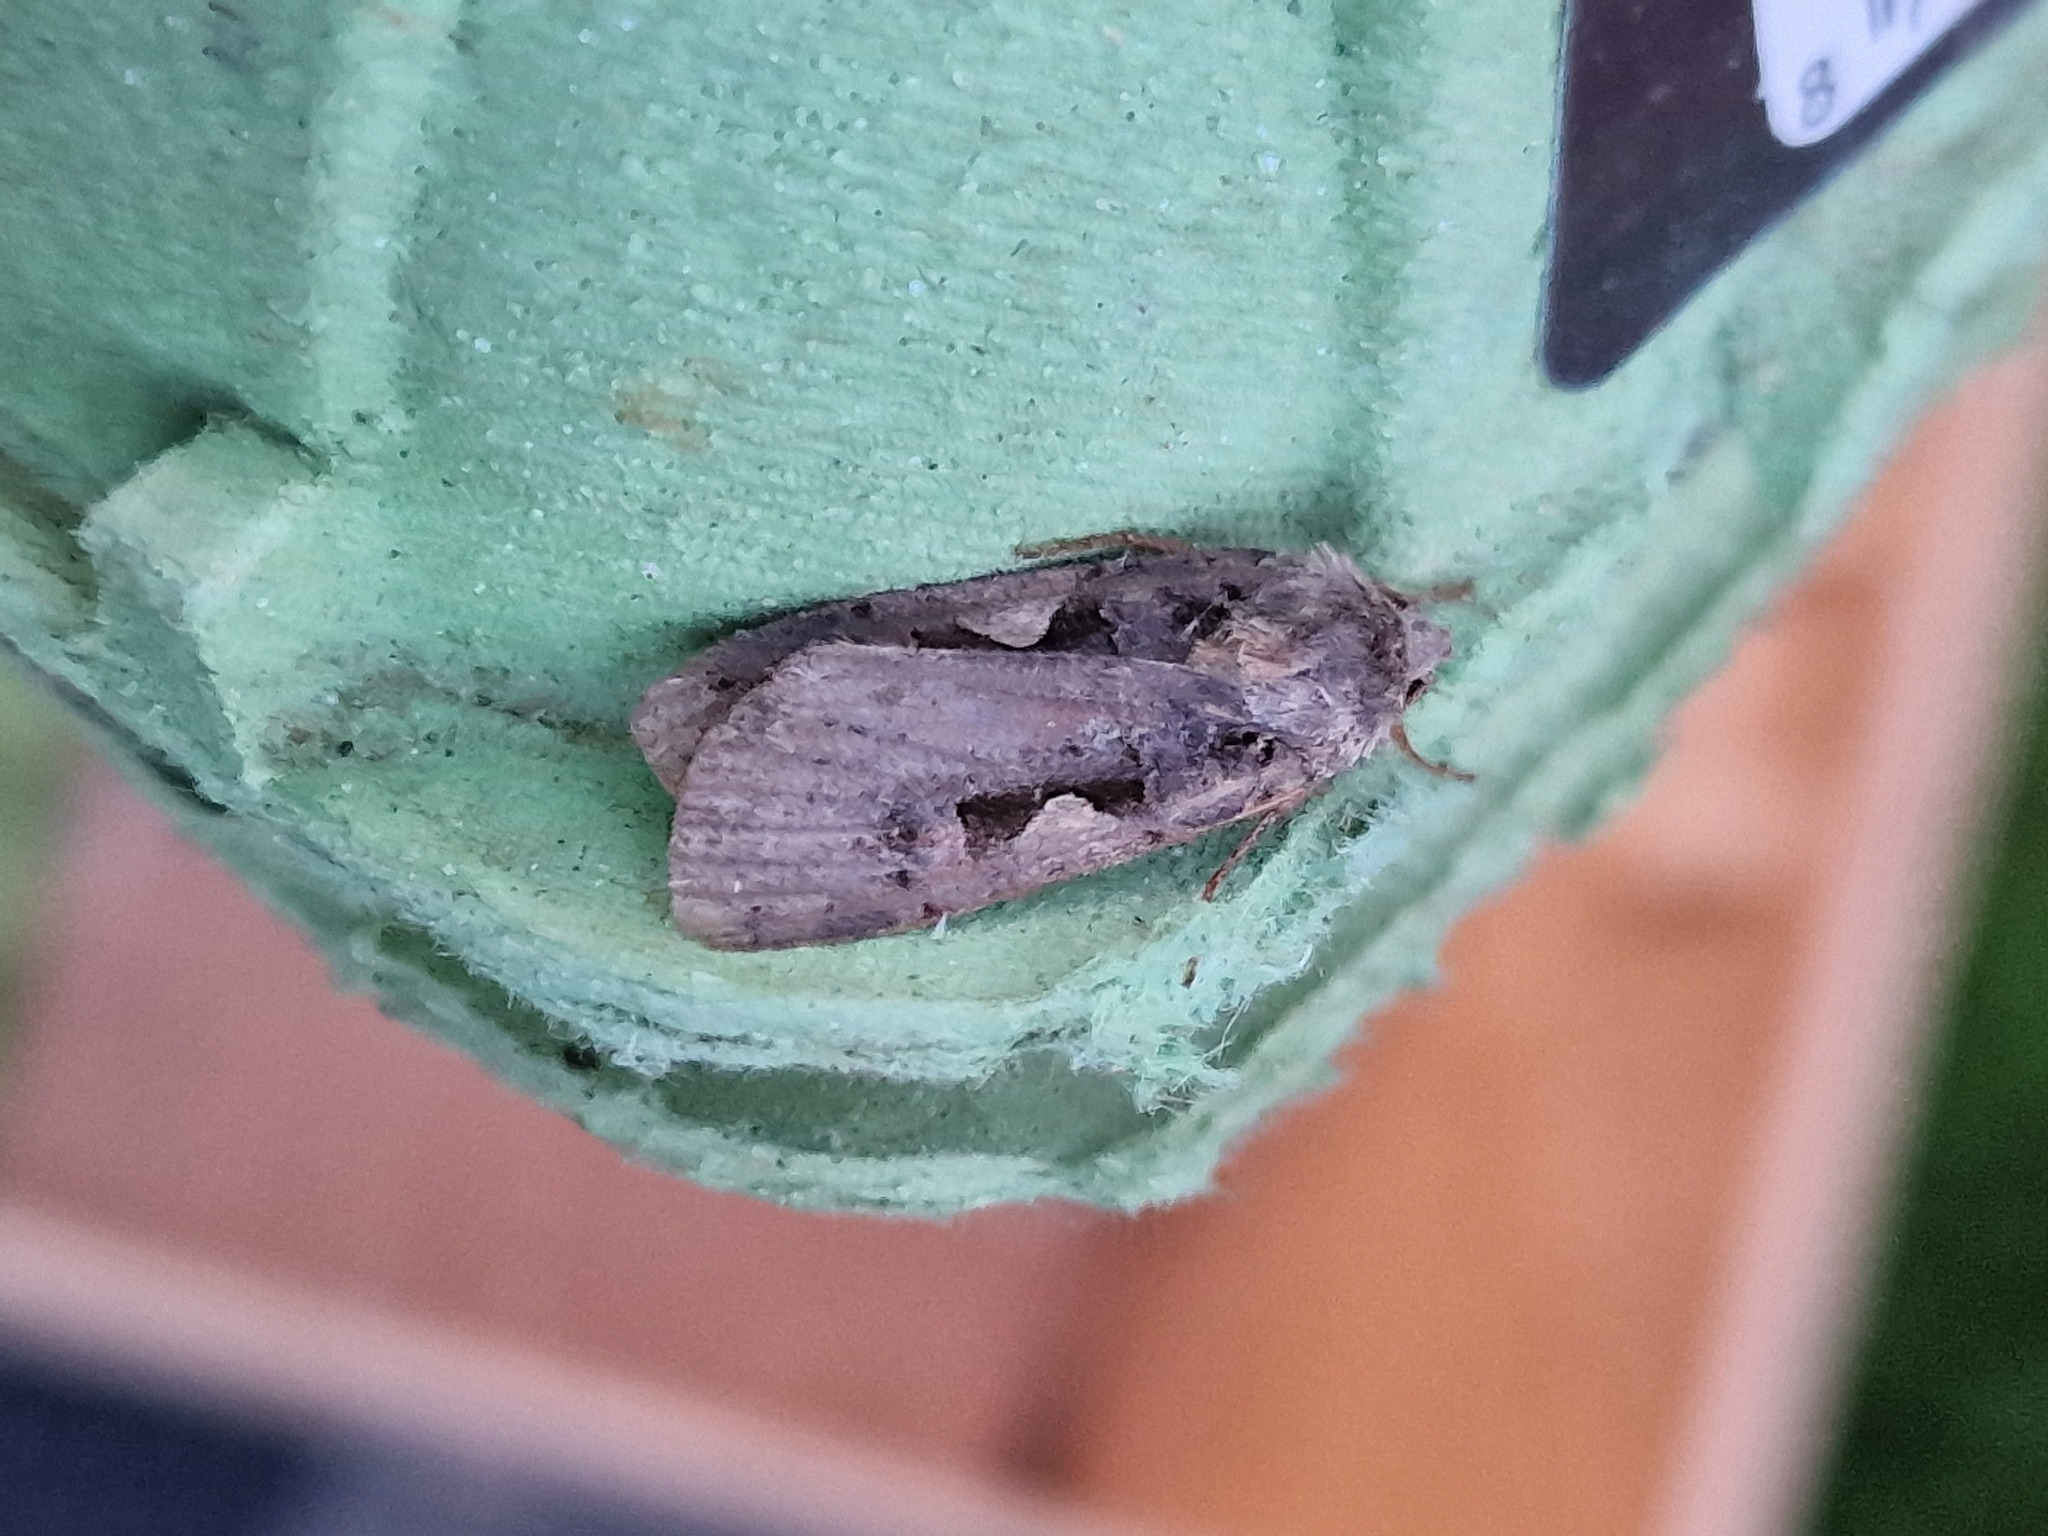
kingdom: Animalia
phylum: Arthropoda
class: Insecta
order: Lepidoptera
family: Noctuidae
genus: Xestia
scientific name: Xestia c-nigrum
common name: Setaceous hebrew character
